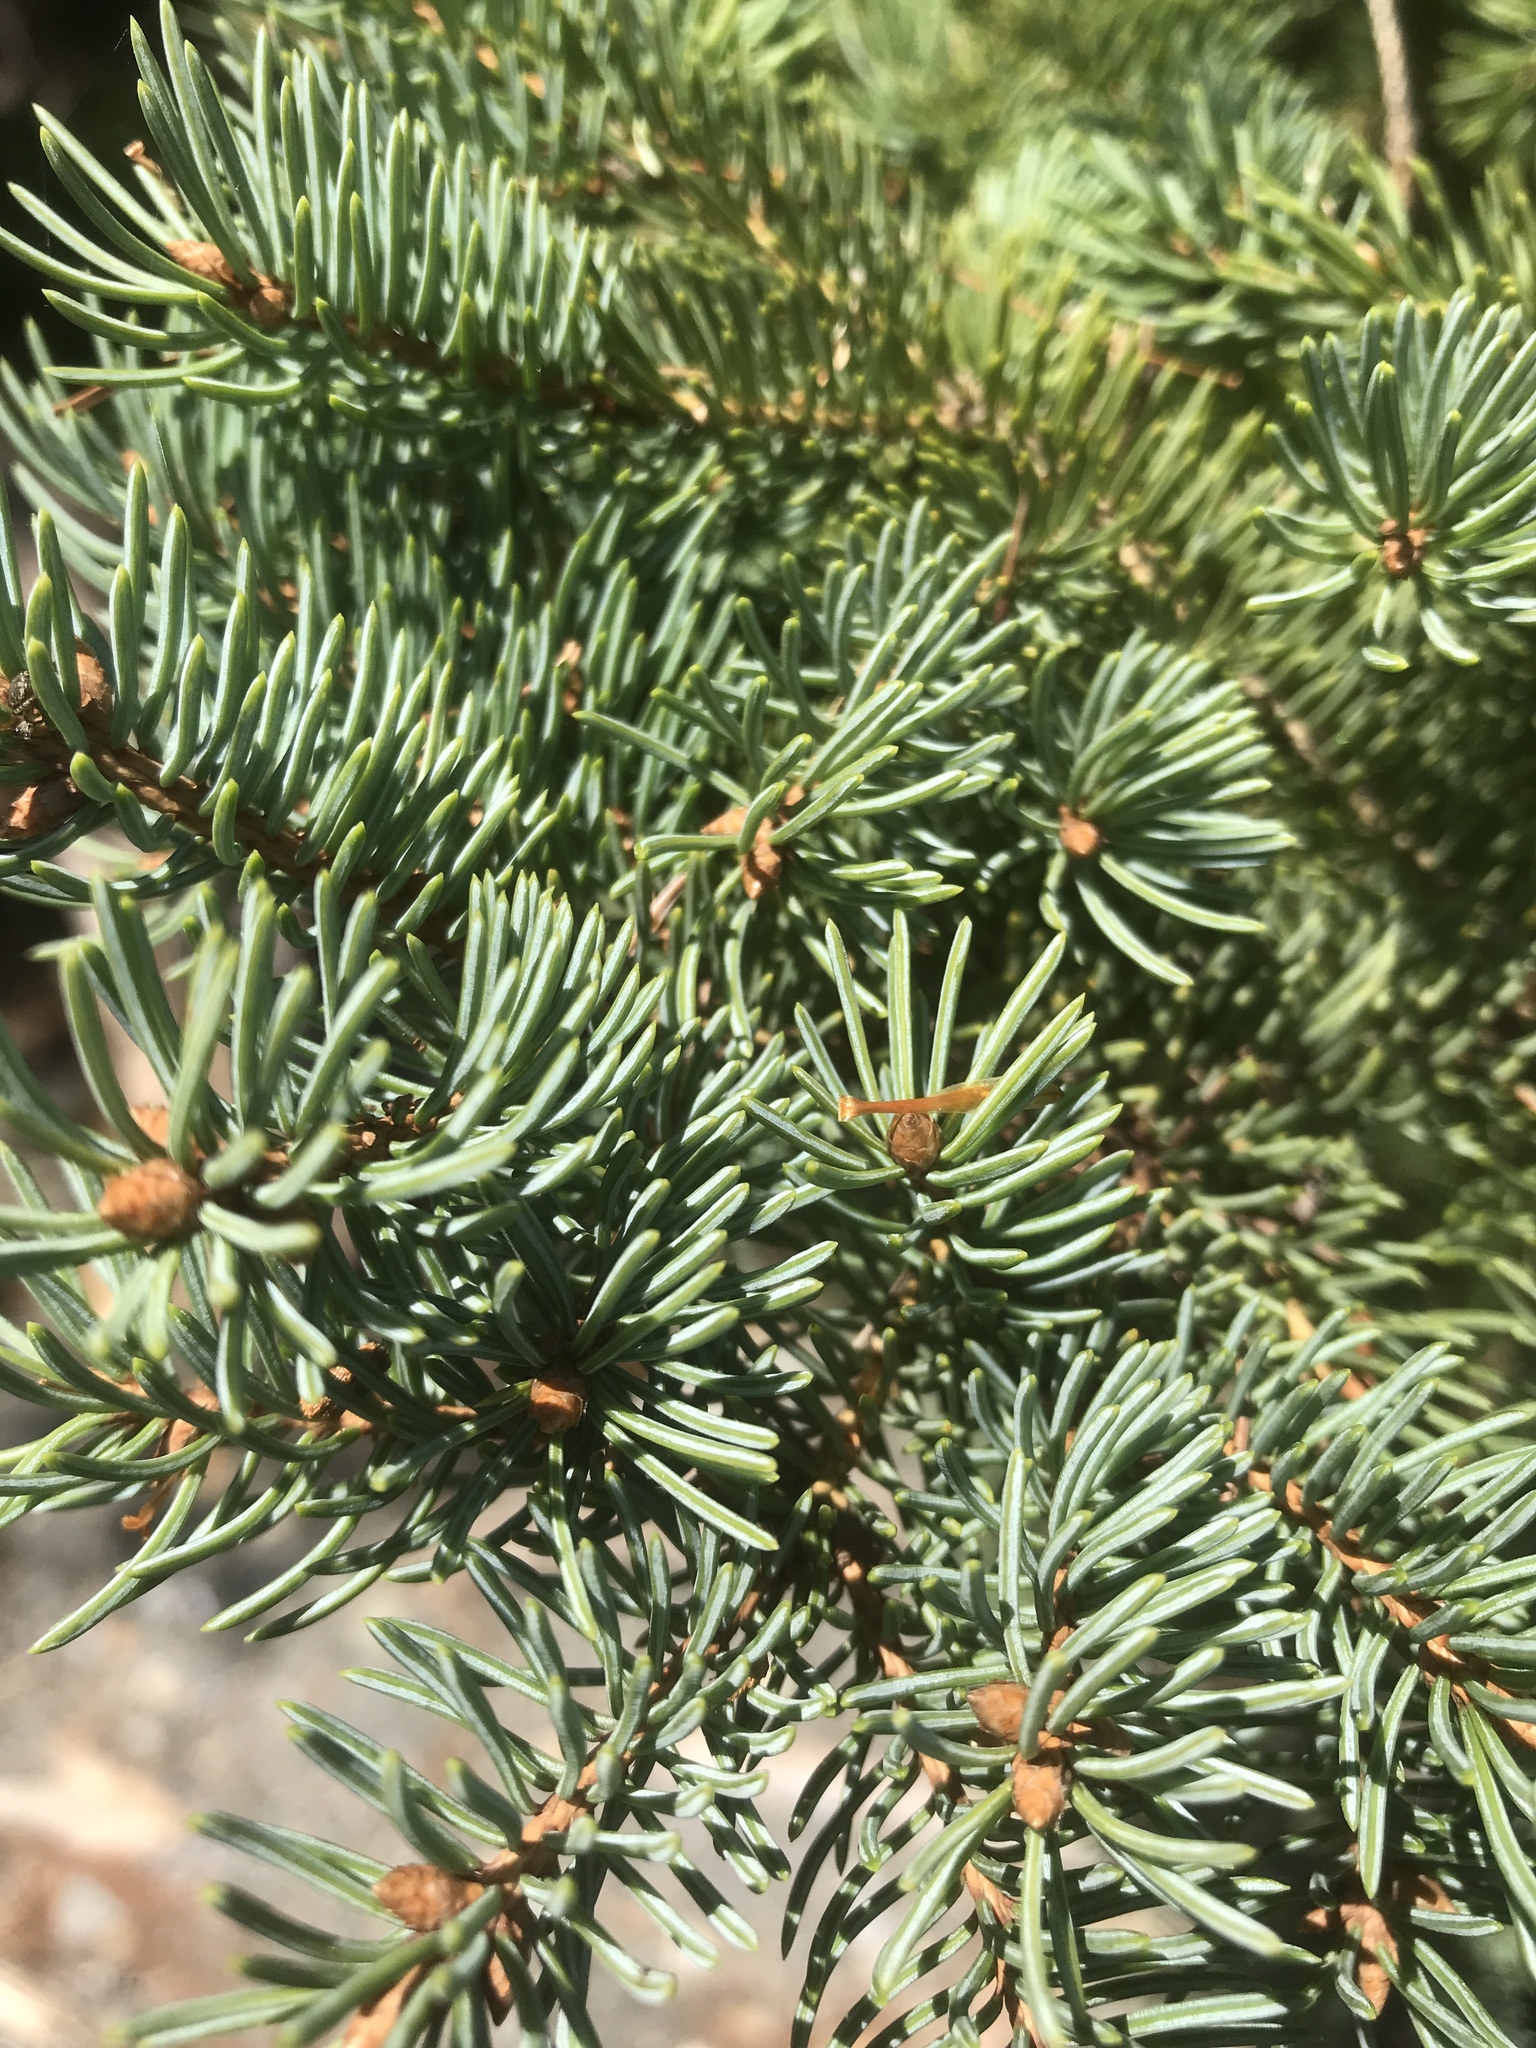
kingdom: Plantae
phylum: Tracheophyta
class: Pinopsida
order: Pinales
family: Pinaceae
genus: Picea
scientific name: Picea glauca
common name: White spruce
